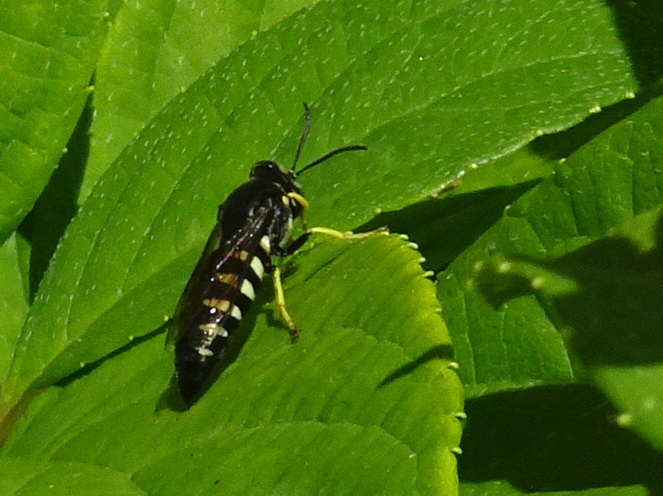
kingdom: Animalia
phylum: Arthropoda
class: Insecta
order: Hymenoptera
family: Crabronidae
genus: Bicyrtes
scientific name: Bicyrtes quadrifasciatus
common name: Four-banded stink bug hunter wasp
